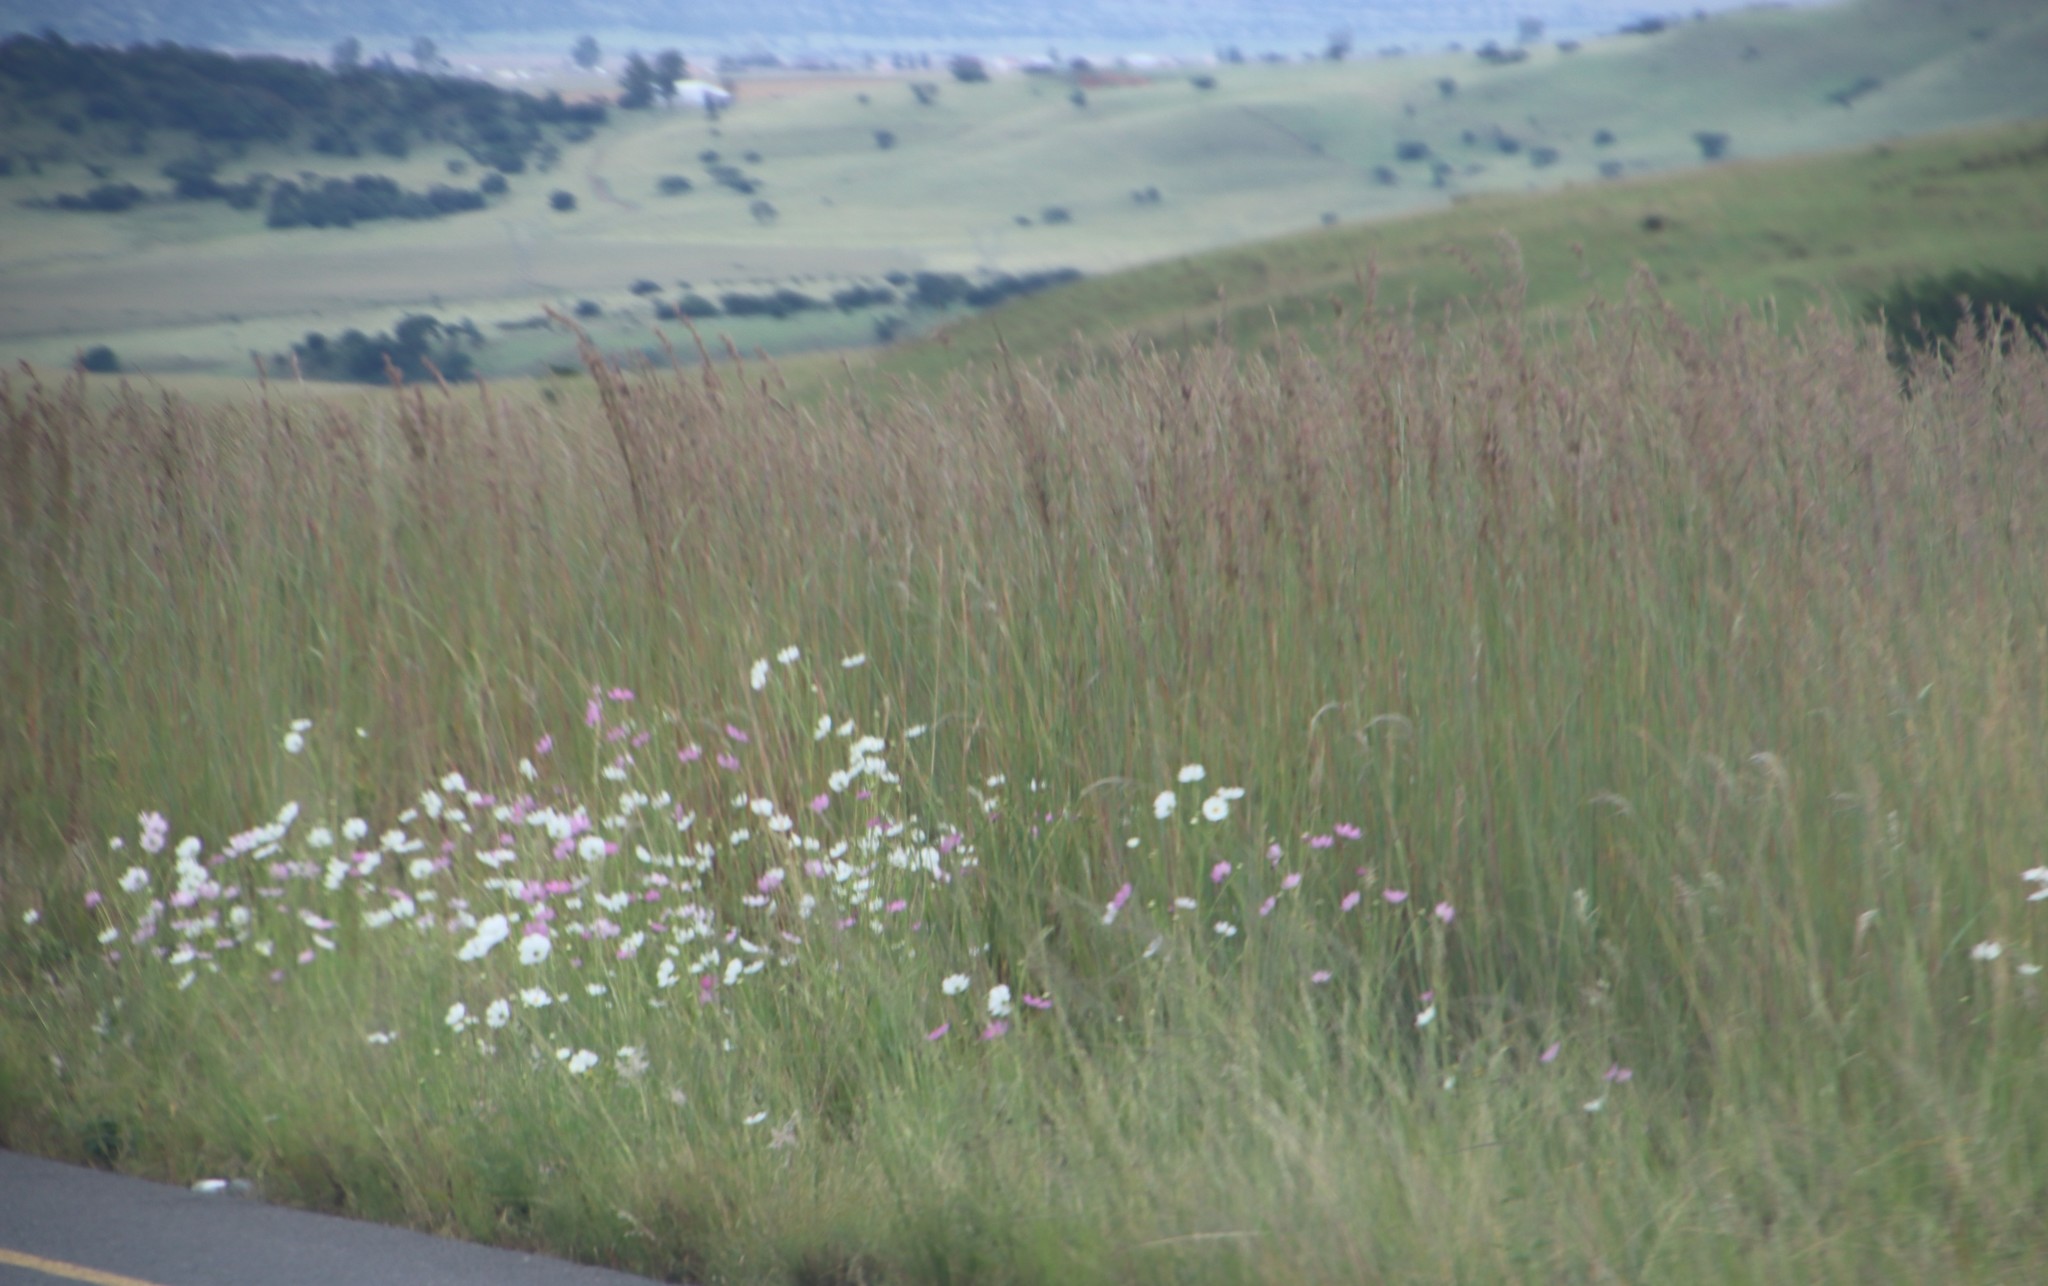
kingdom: Plantae
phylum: Tracheophyta
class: Magnoliopsida
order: Asterales
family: Asteraceae
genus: Cosmos
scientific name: Cosmos bipinnatus
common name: Garden cosmos
